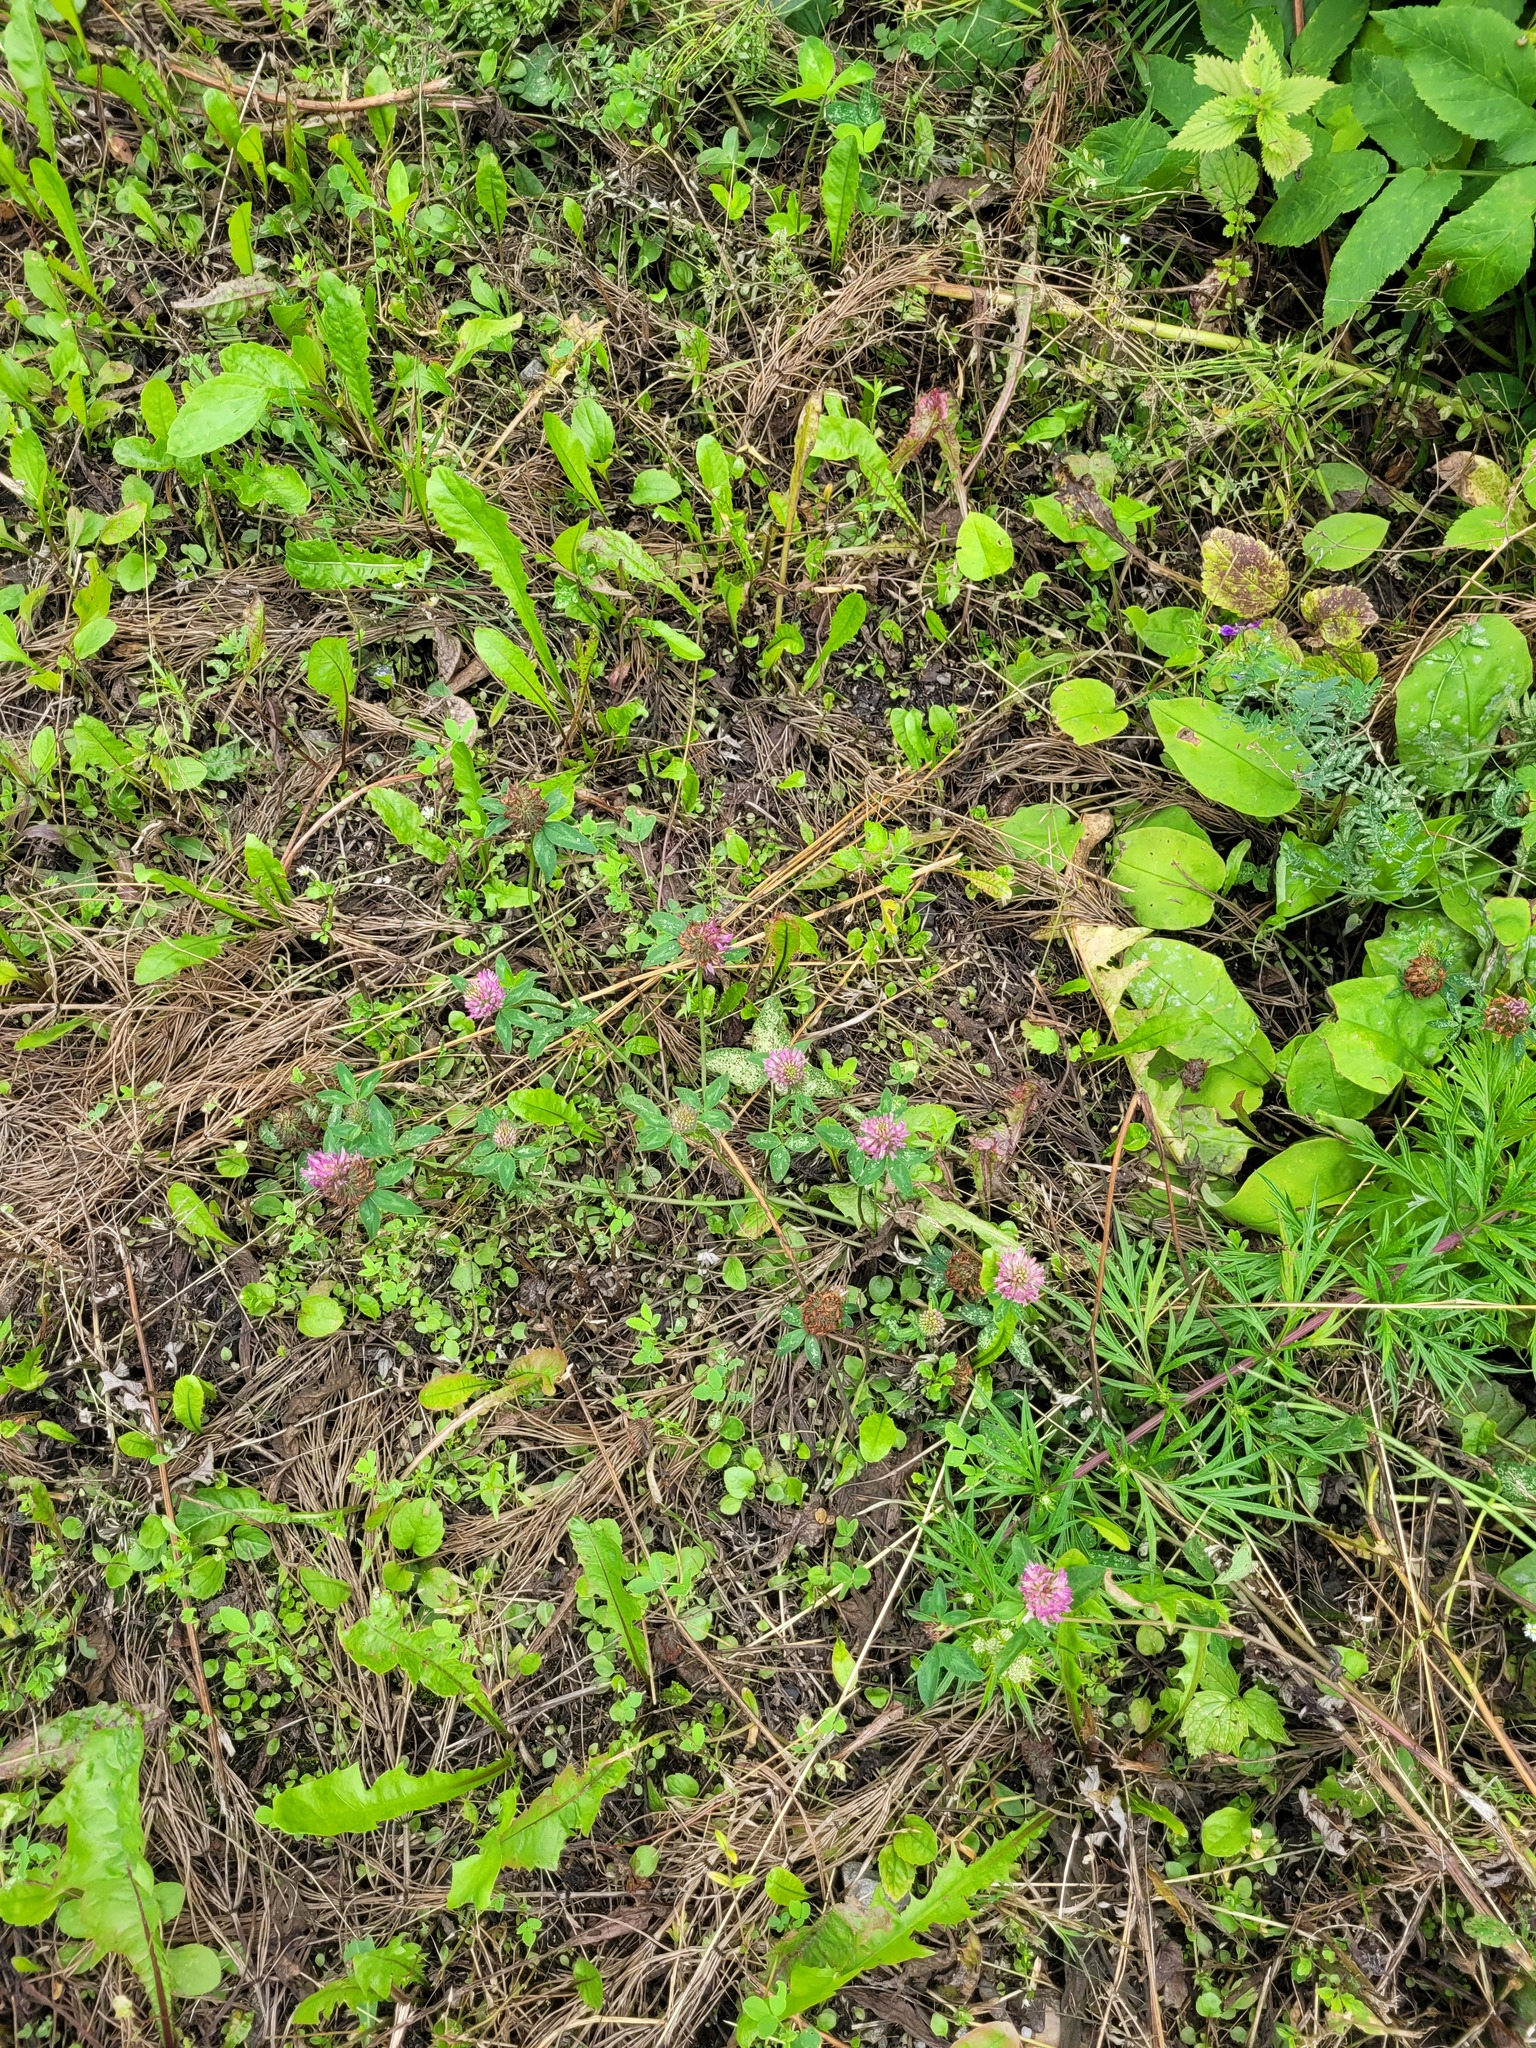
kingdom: Plantae
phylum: Tracheophyta
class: Magnoliopsida
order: Fabales
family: Fabaceae
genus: Trifolium
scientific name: Trifolium pratense
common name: Red clover
